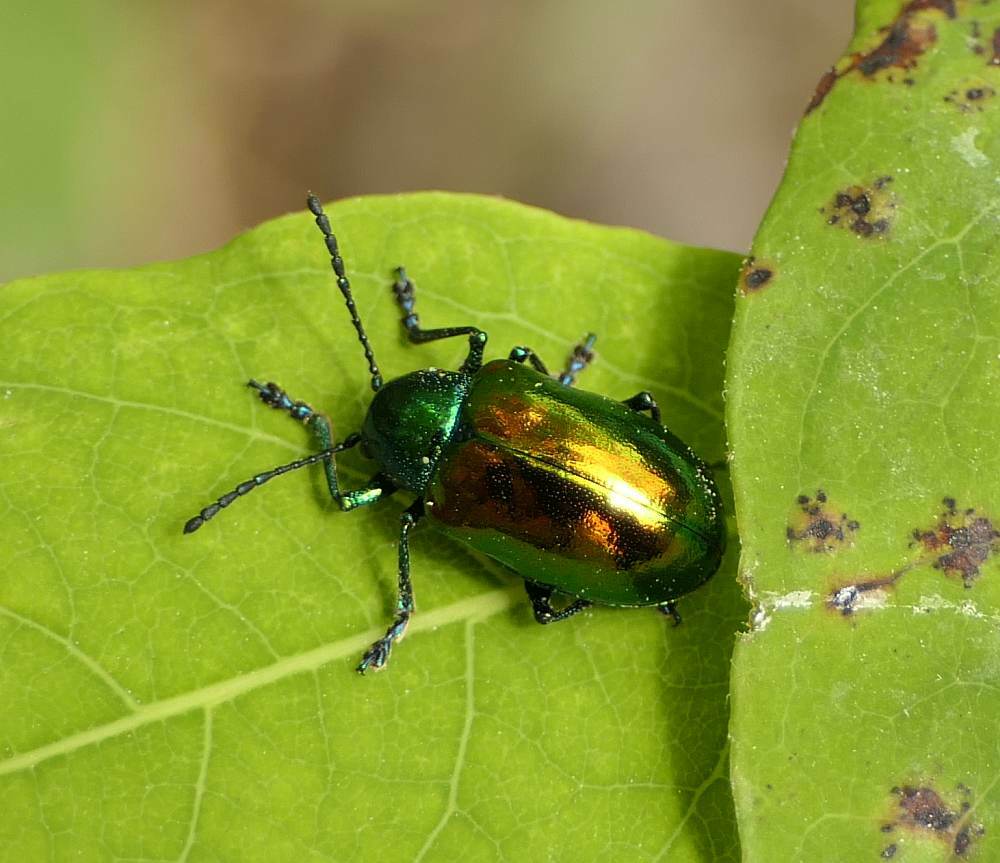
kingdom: Animalia
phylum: Arthropoda
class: Insecta
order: Coleoptera
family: Chrysomelidae
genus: Chrysochus
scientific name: Chrysochus auratus
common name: Dogbane leaf beetle
